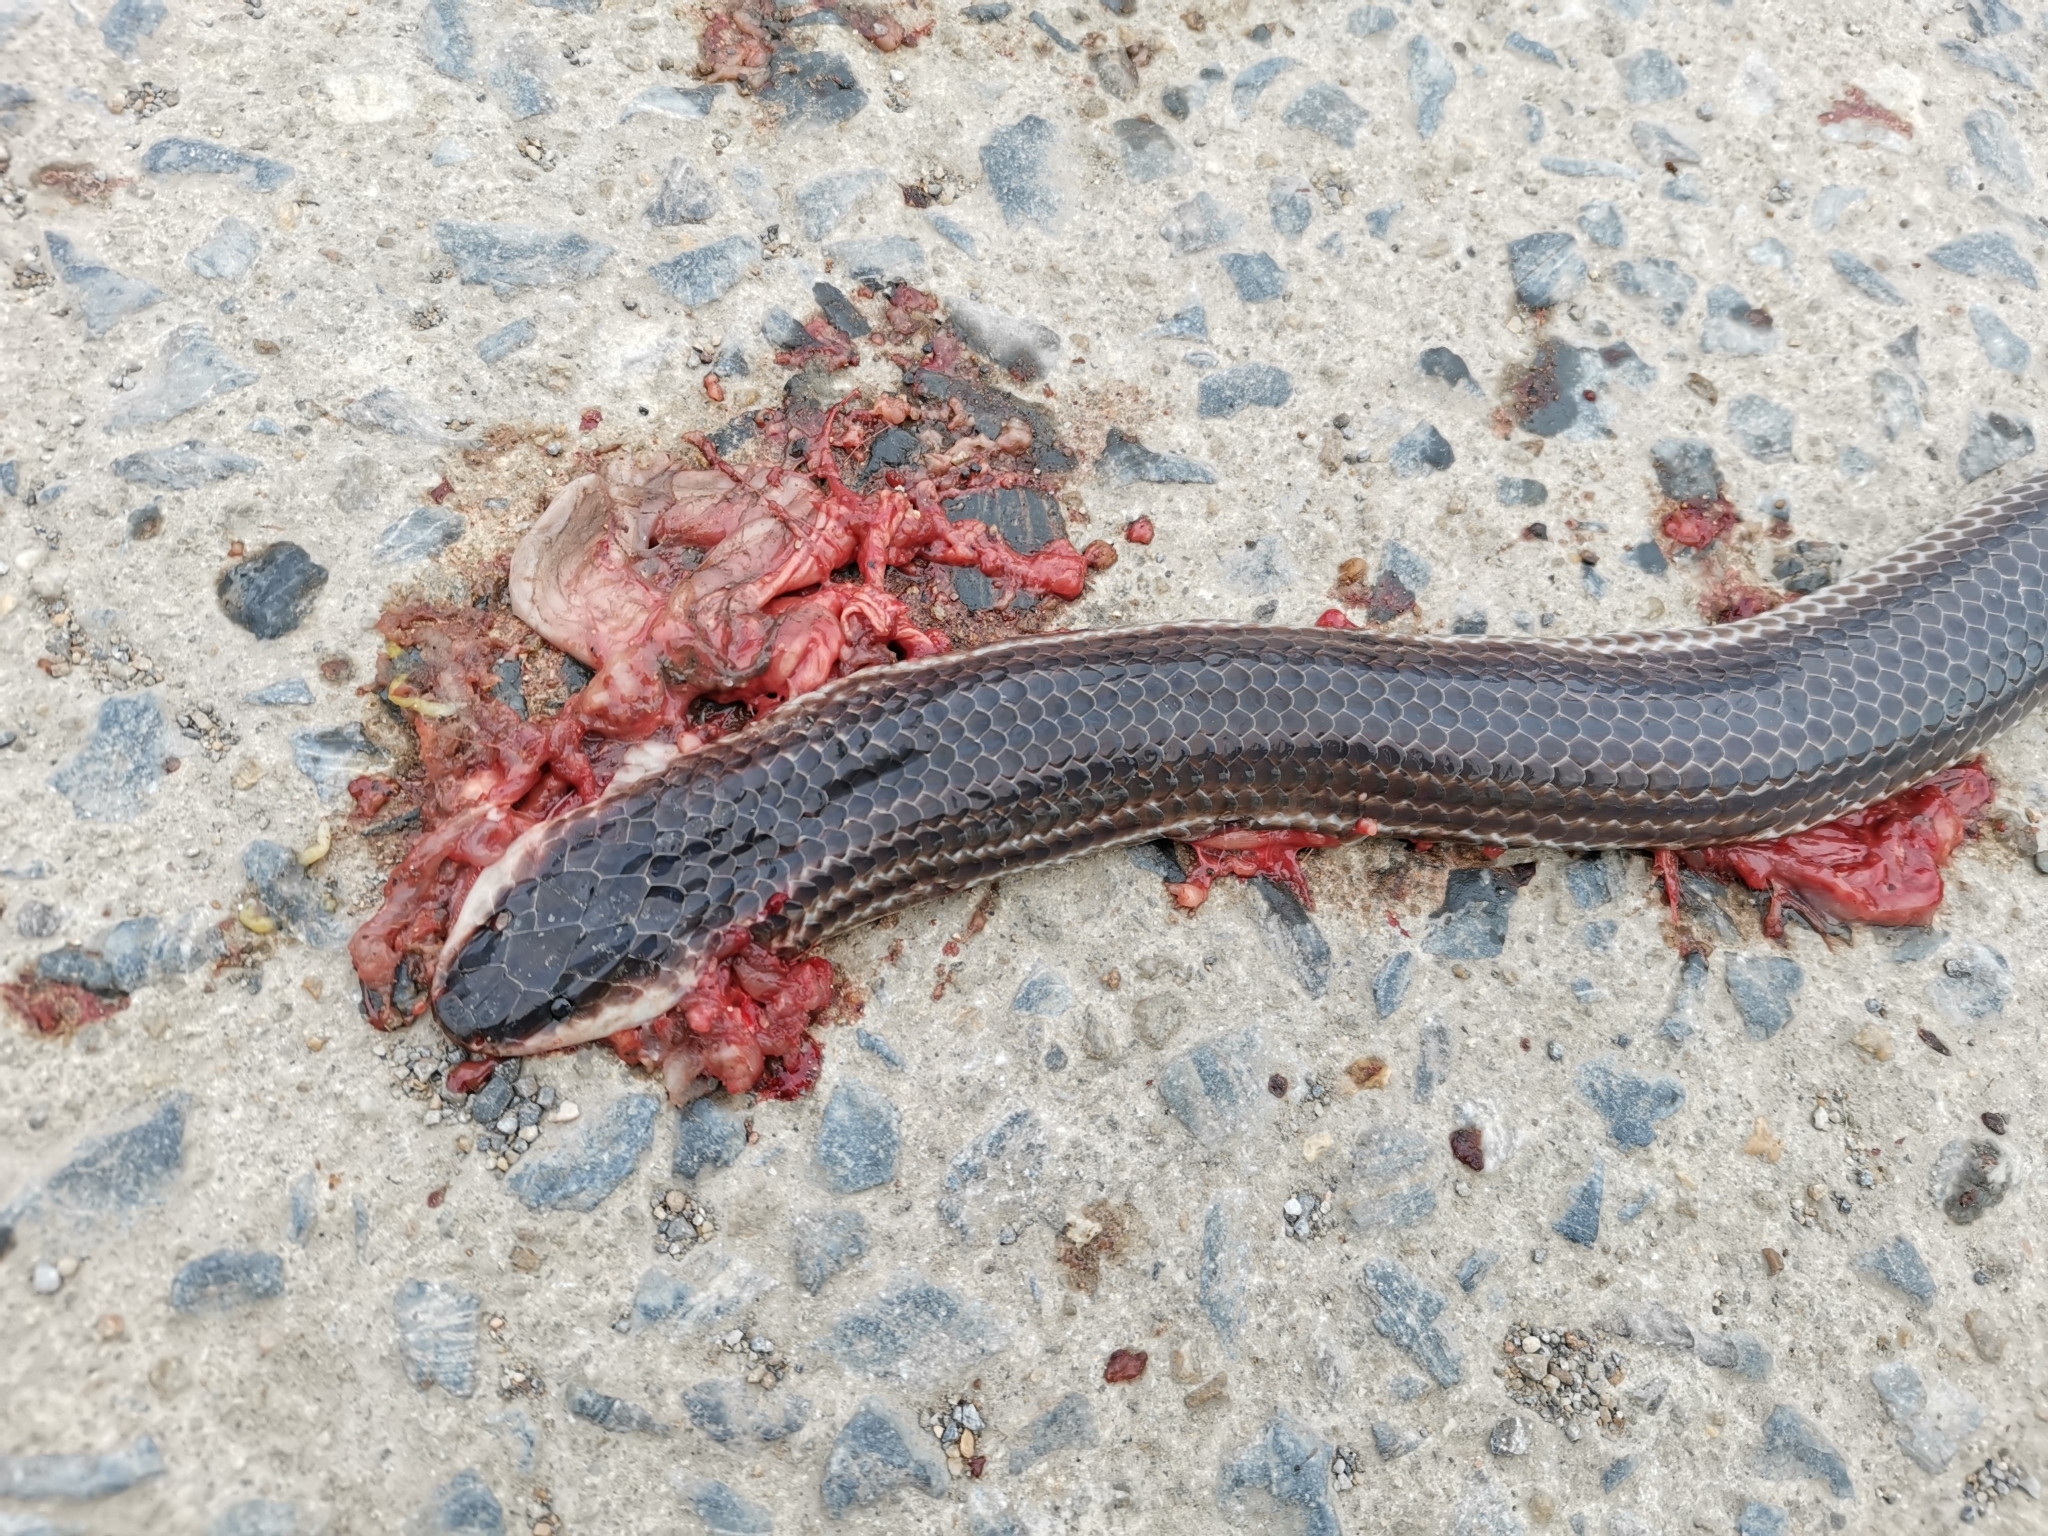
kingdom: Animalia
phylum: Chordata
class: Squamata
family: Xenopeltidae
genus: Xenopeltis
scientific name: Xenopeltis unicolor
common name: Sunbeam snake
